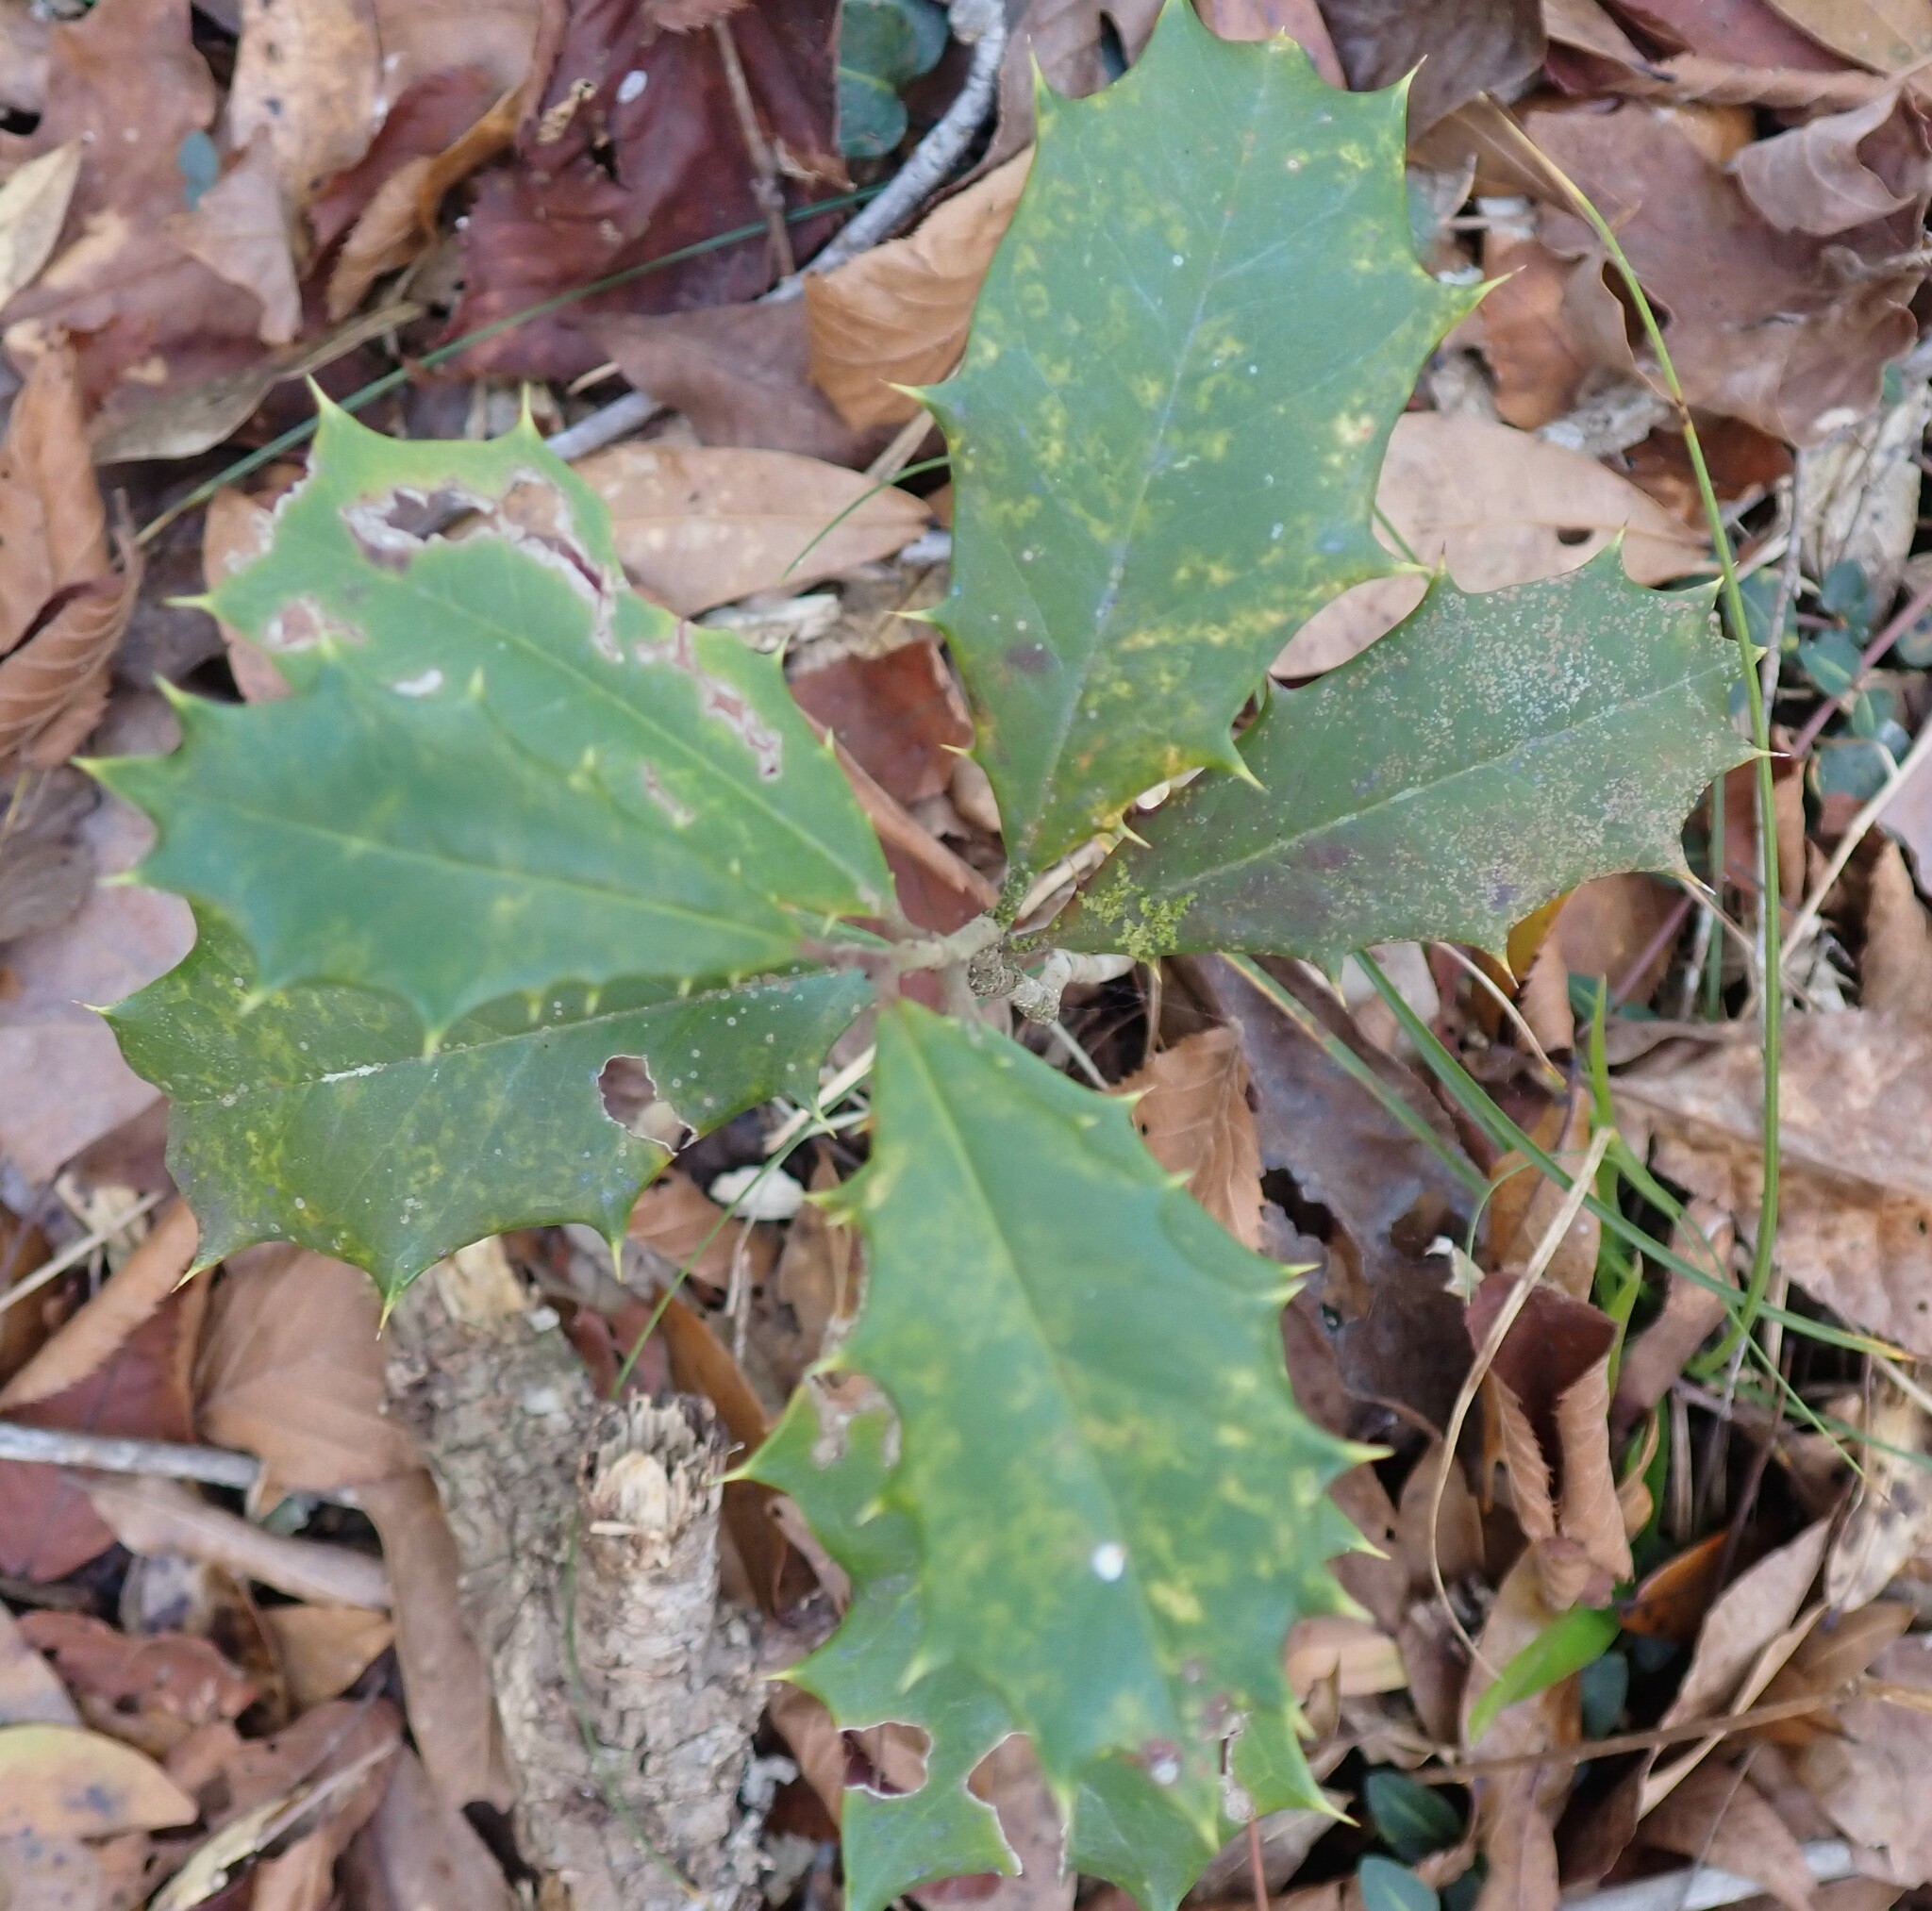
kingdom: Plantae
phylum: Tracheophyta
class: Magnoliopsida
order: Aquifoliales
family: Aquifoliaceae
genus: Ilex
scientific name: Ilex opaca
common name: American holly
